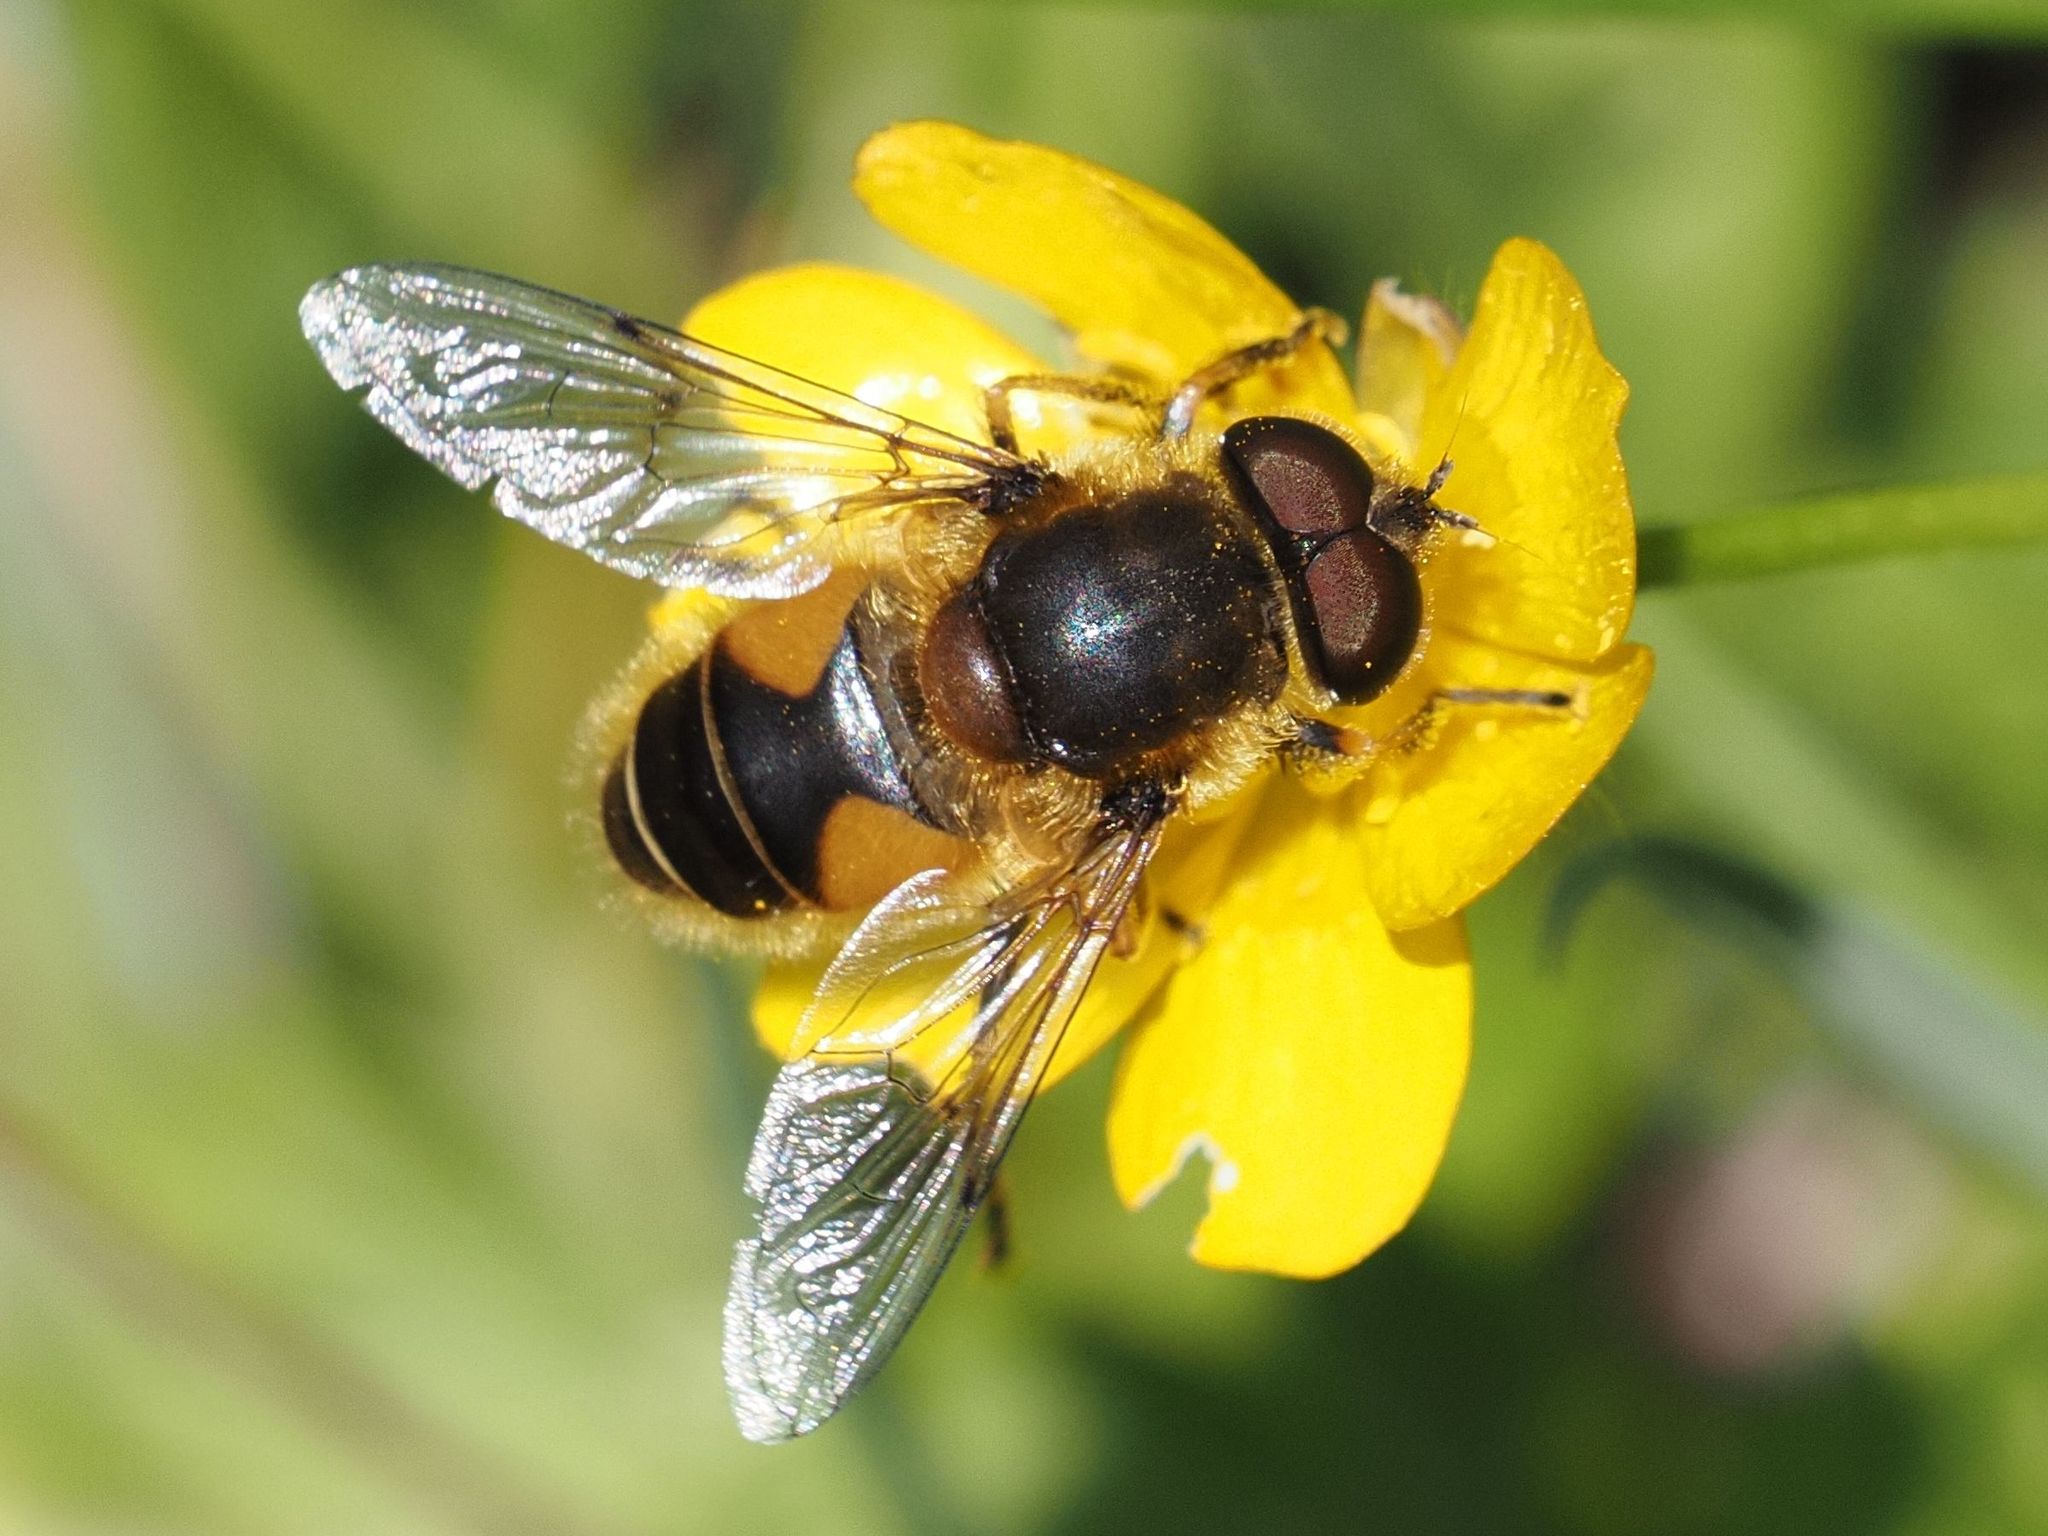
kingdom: Animalia
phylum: Arthropoda
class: Insecta
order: Diptera
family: Syrphidae
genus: Eristalis
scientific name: Eristalis jugorum
